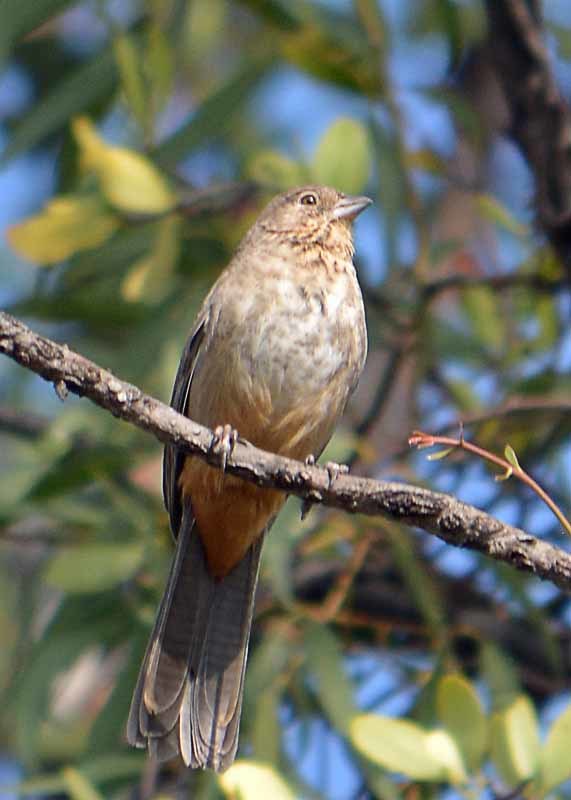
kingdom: Animalia
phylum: Chordata
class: Aves
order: Passeriformes
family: Passerellidae
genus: Melozone
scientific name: Melozone fusca
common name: Canyon towhee
